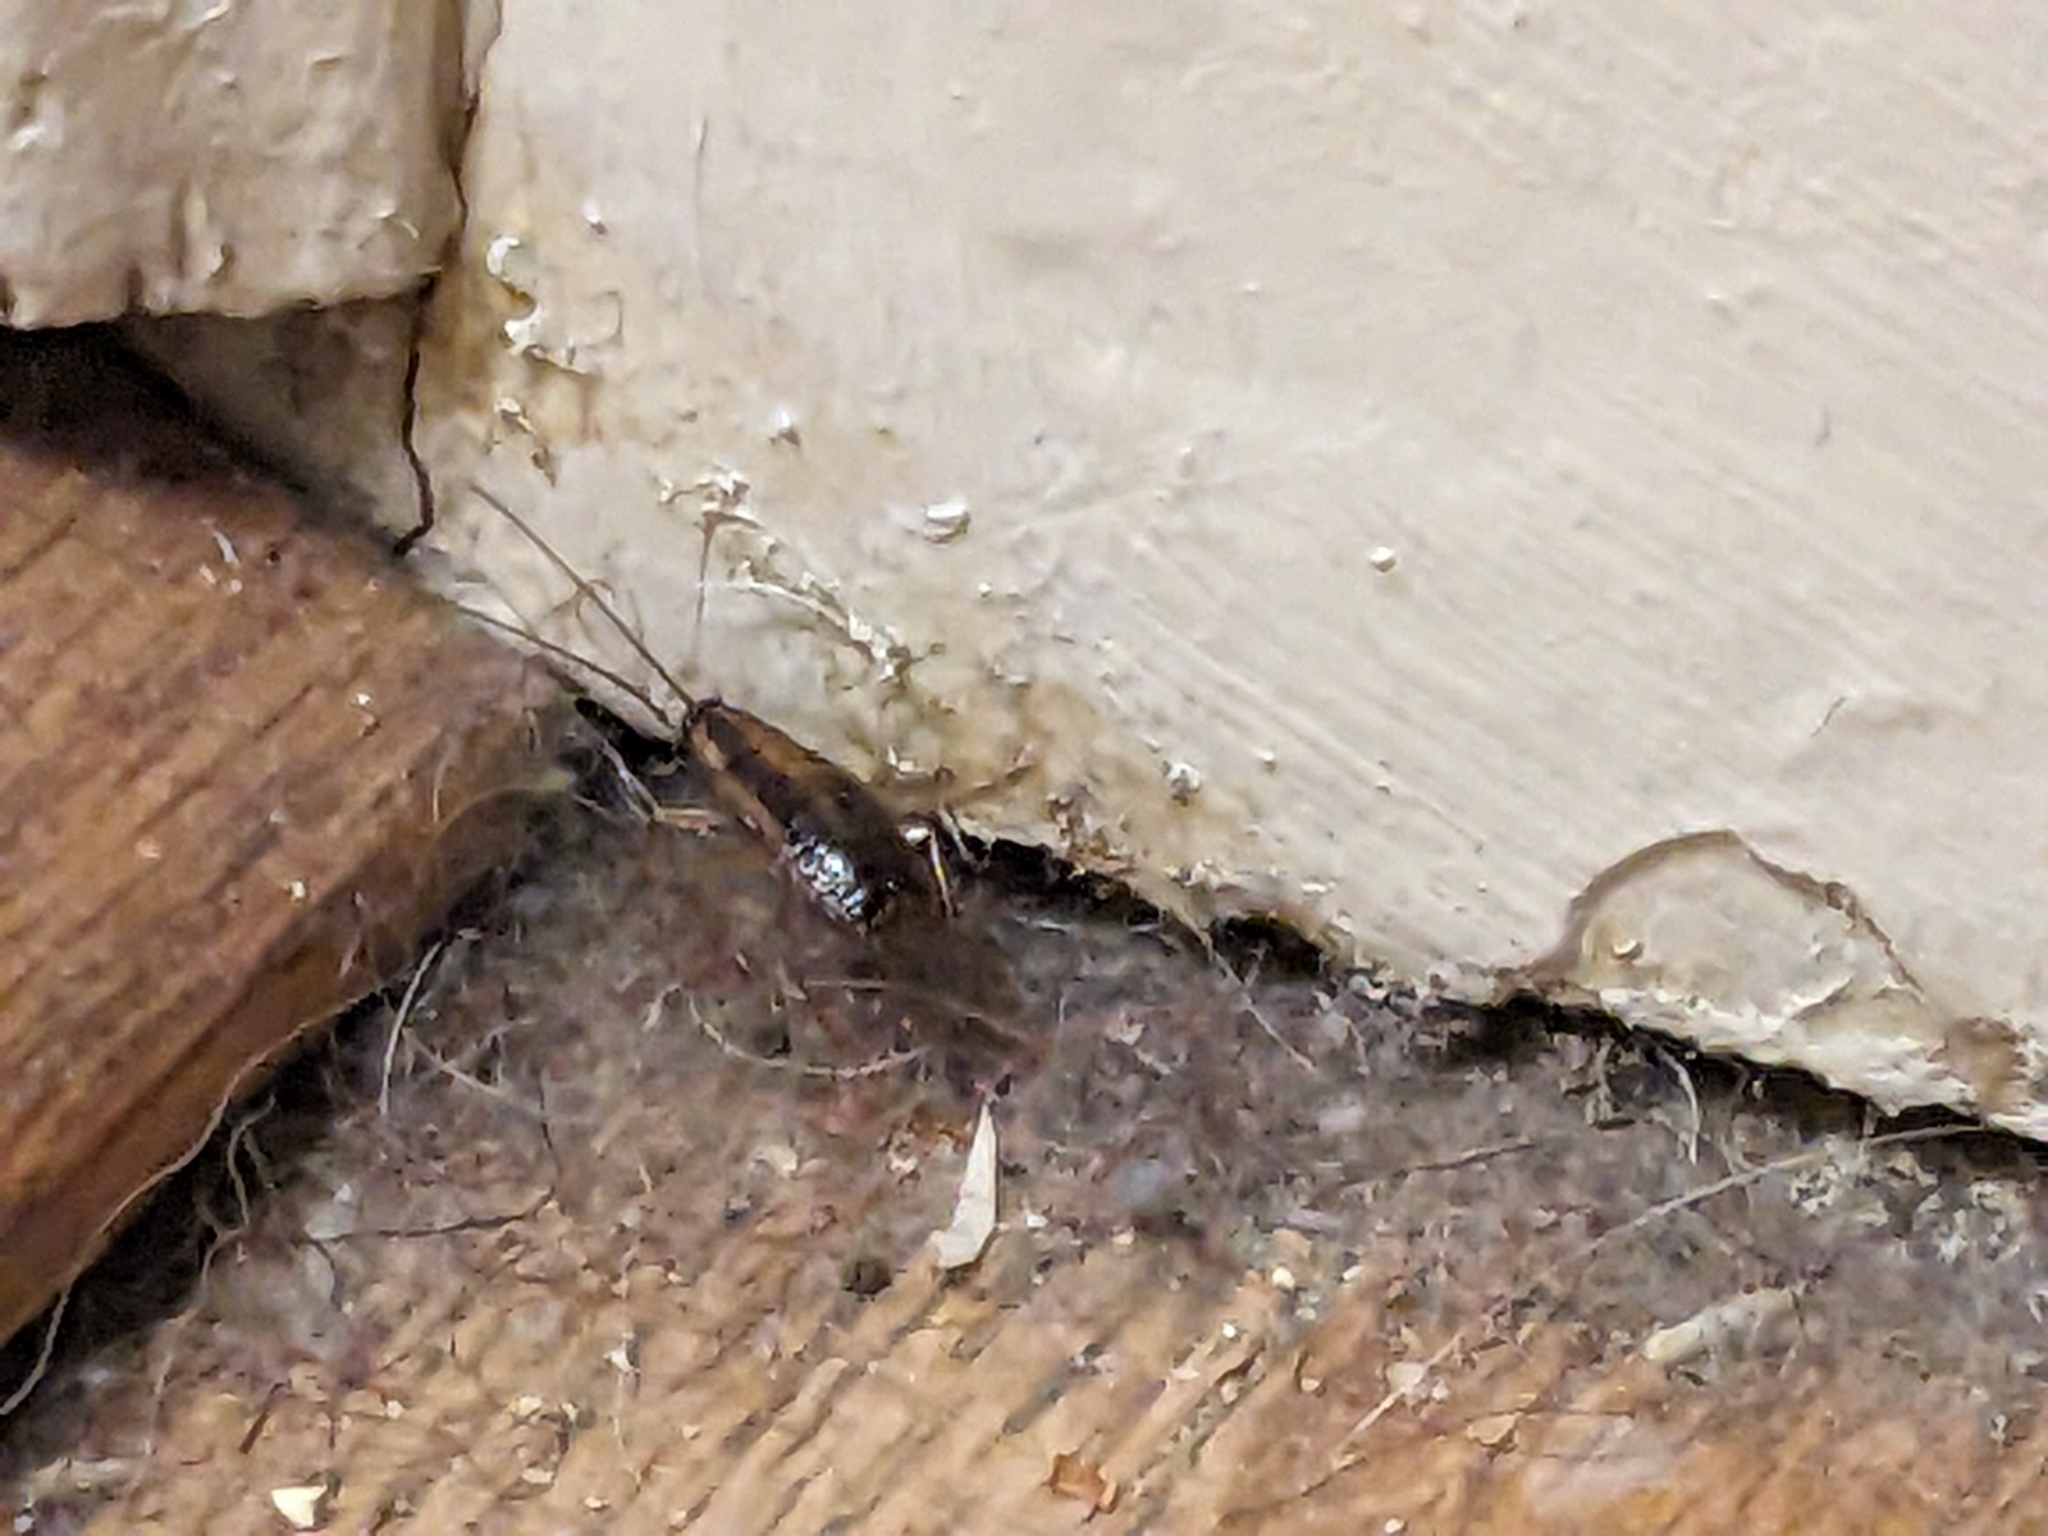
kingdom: Animalia
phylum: Arthropoda
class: Insecta
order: Blattodea
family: Ectobiidae
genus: Blattella
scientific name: Blattella germanica
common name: German cockroach
